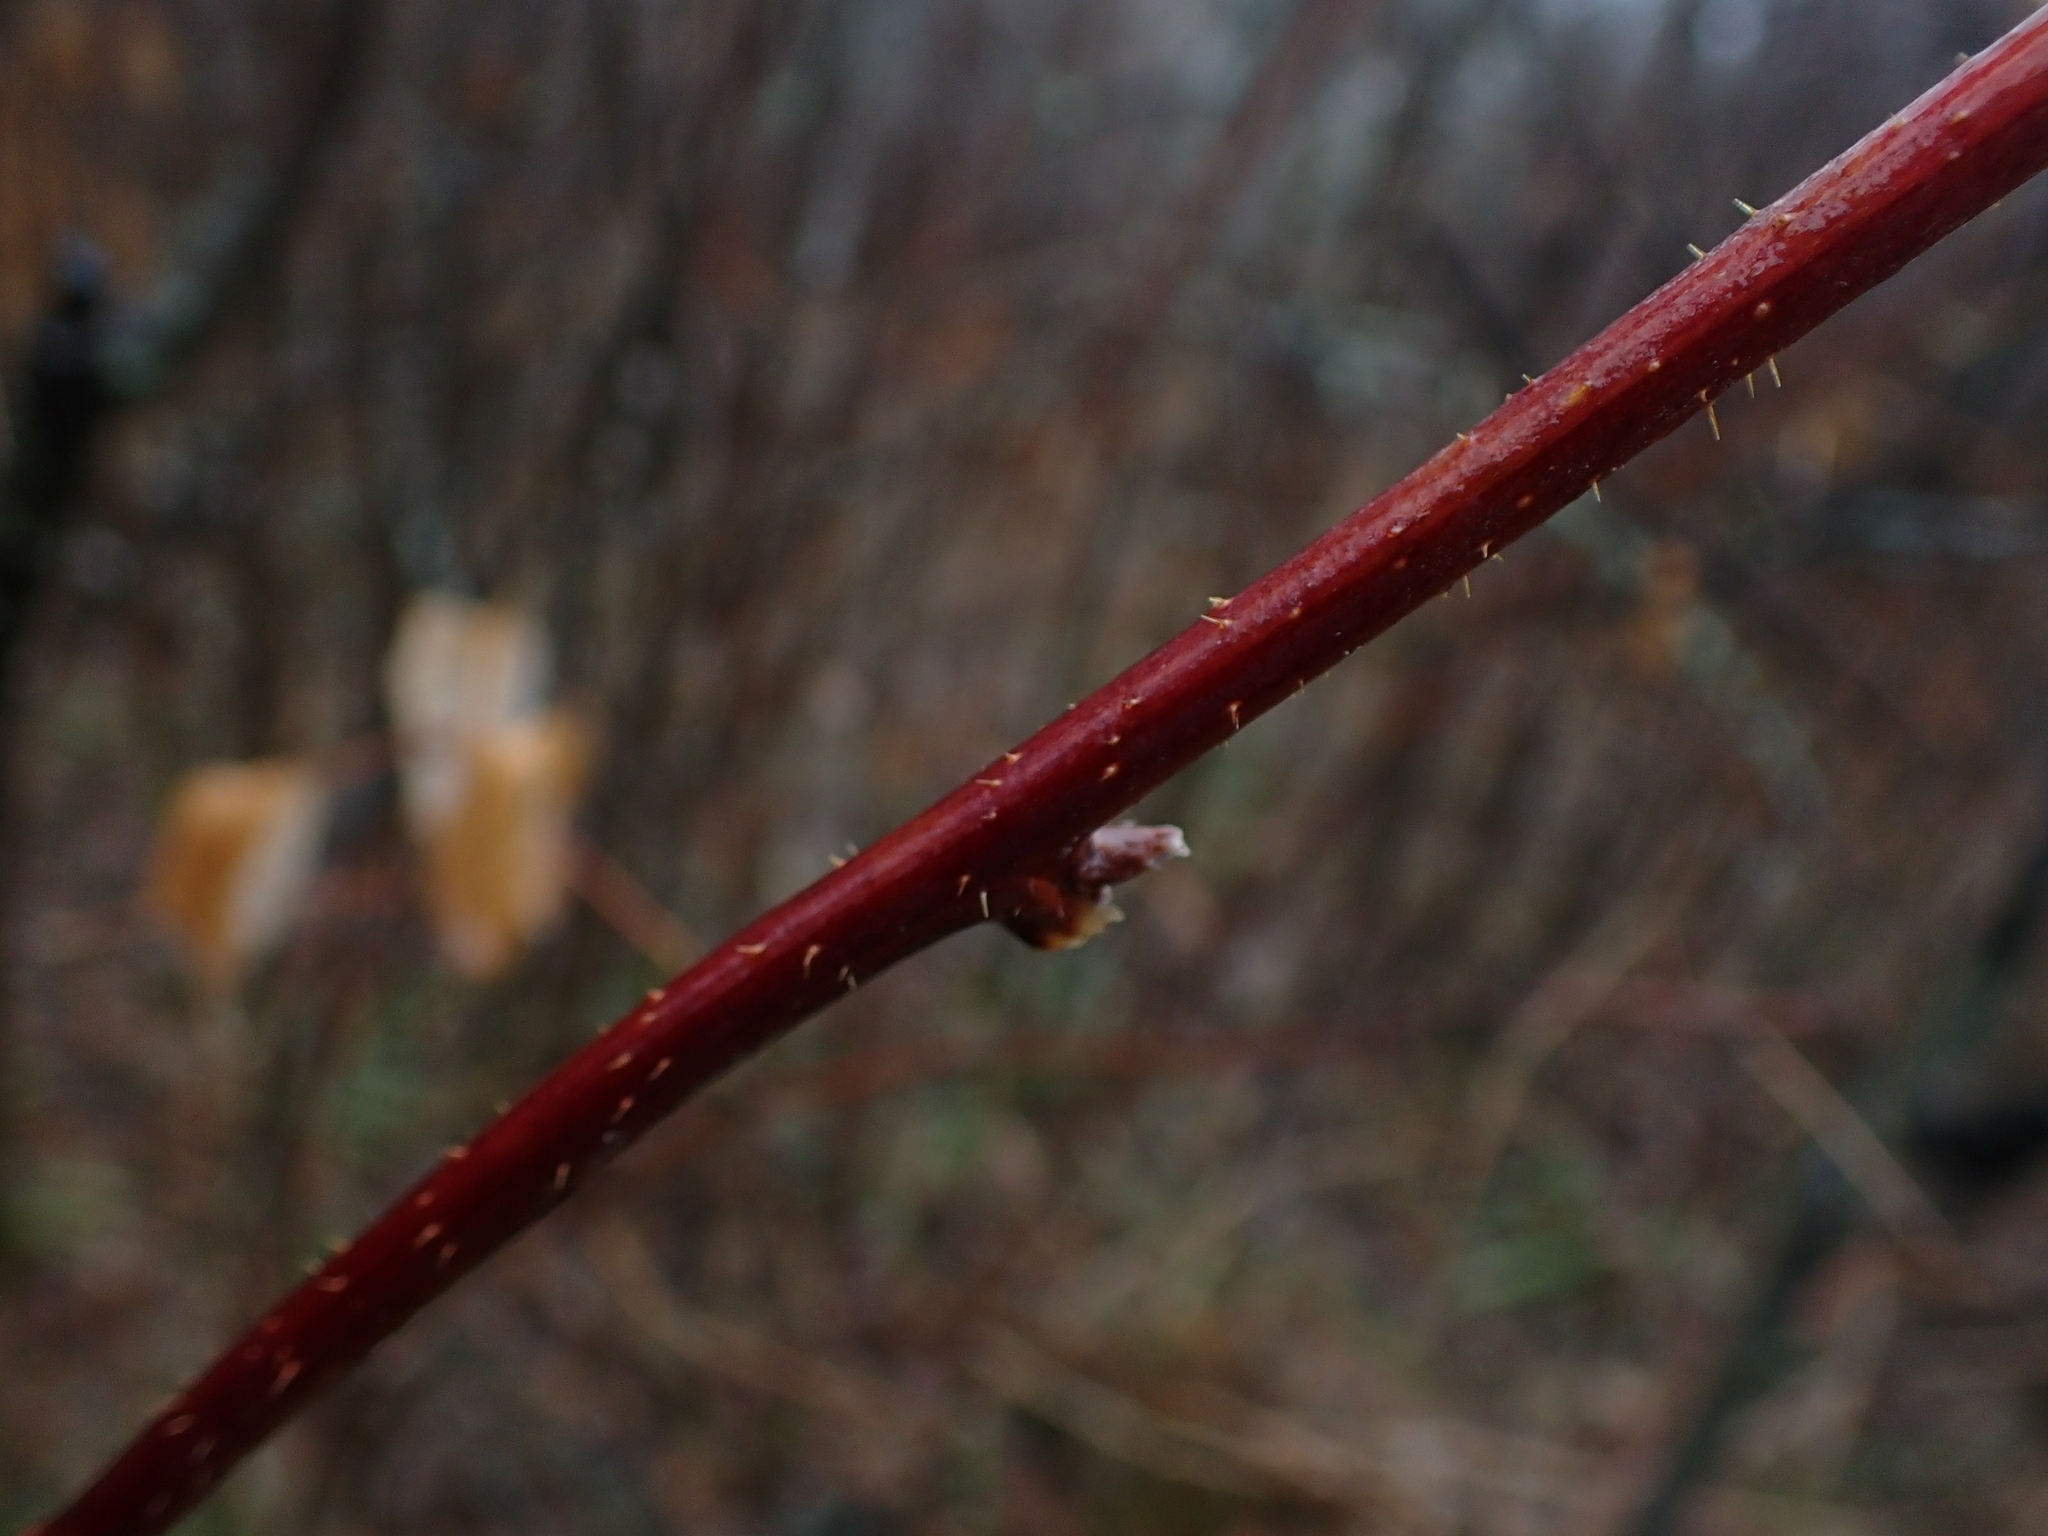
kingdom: Plantae
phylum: Tracheophyta
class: Magnoliopsida
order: Rosales
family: Rosaceae
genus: Rubus
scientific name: Rubus idaeus
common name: Raspberry
